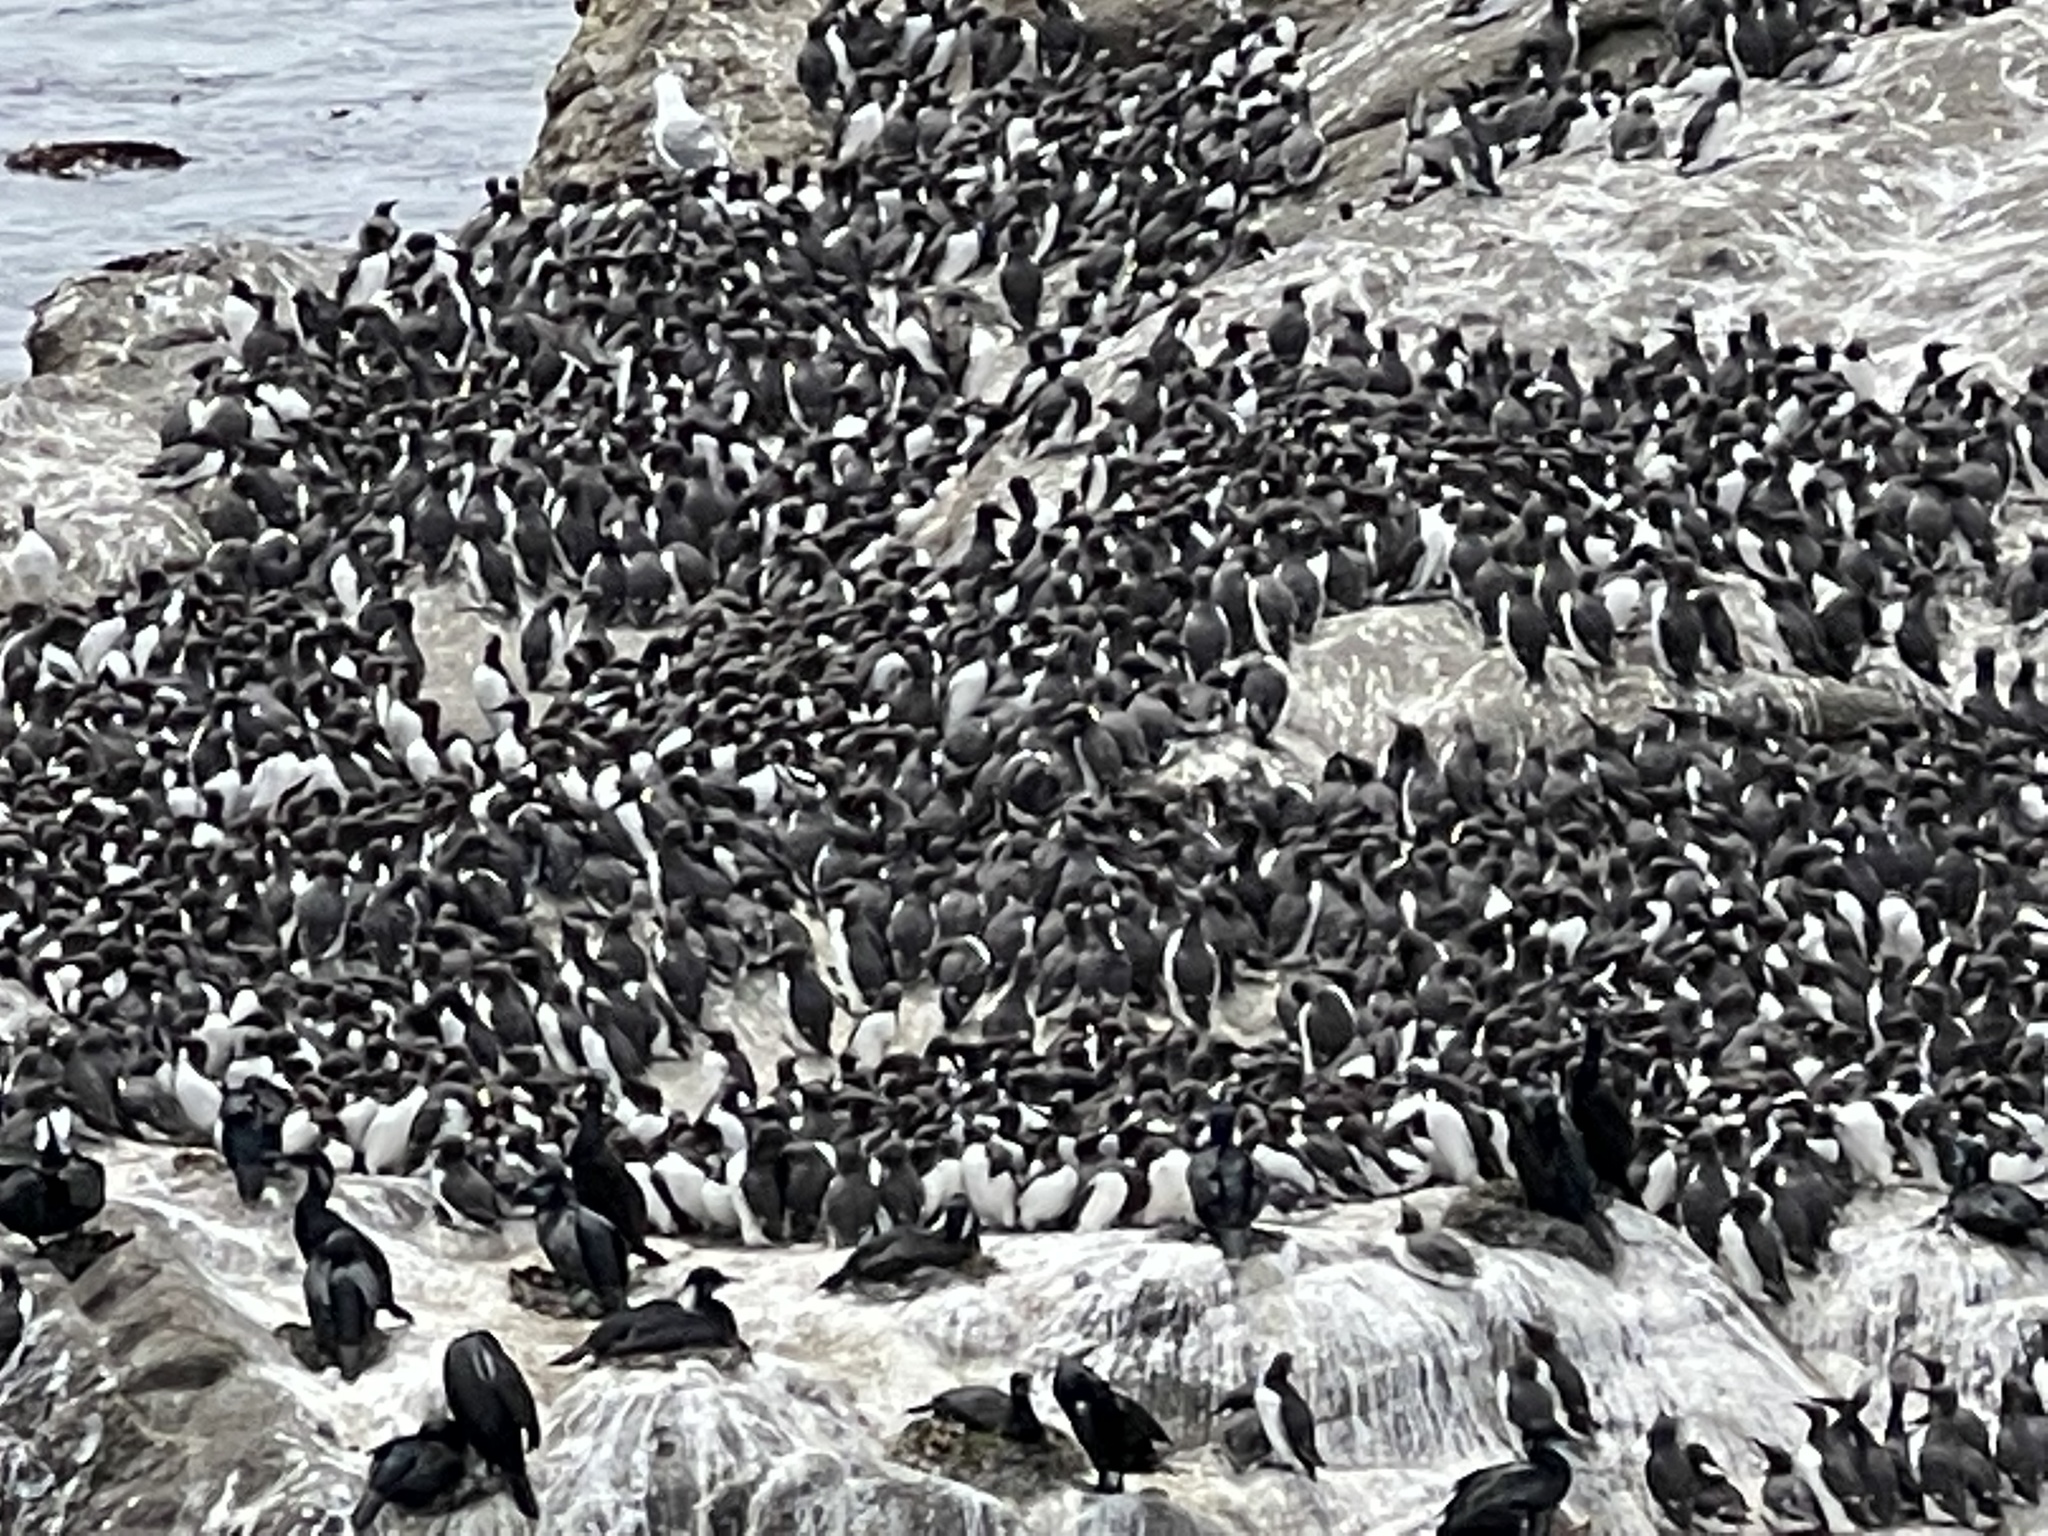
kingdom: Animalia
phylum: Chordata
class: Aves
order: Charadriiformes
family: Alcidae
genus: Uria
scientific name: Uria aalge
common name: Common murre
